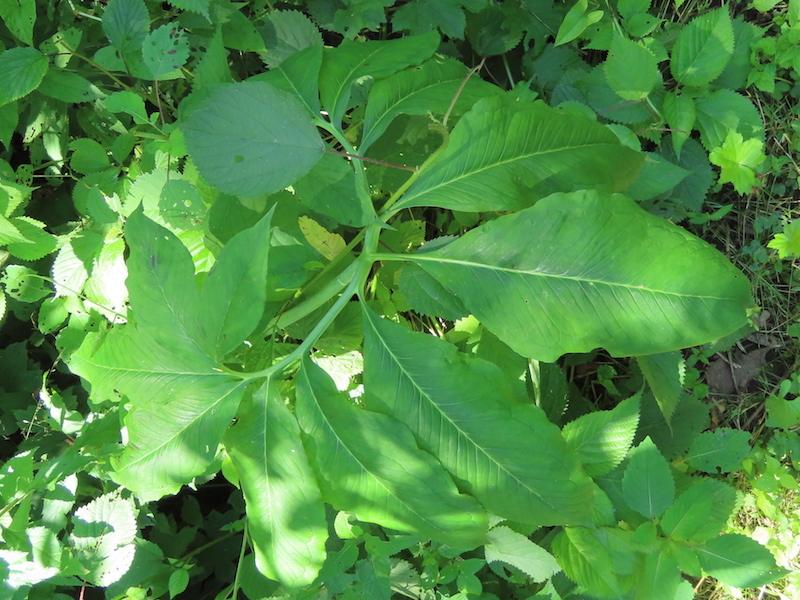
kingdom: Plantae
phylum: Tracheophyta
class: Liliopsida
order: Alismatales
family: Araceae
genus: Arisaema
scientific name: Arisaema dracontium
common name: Dragon-arum
